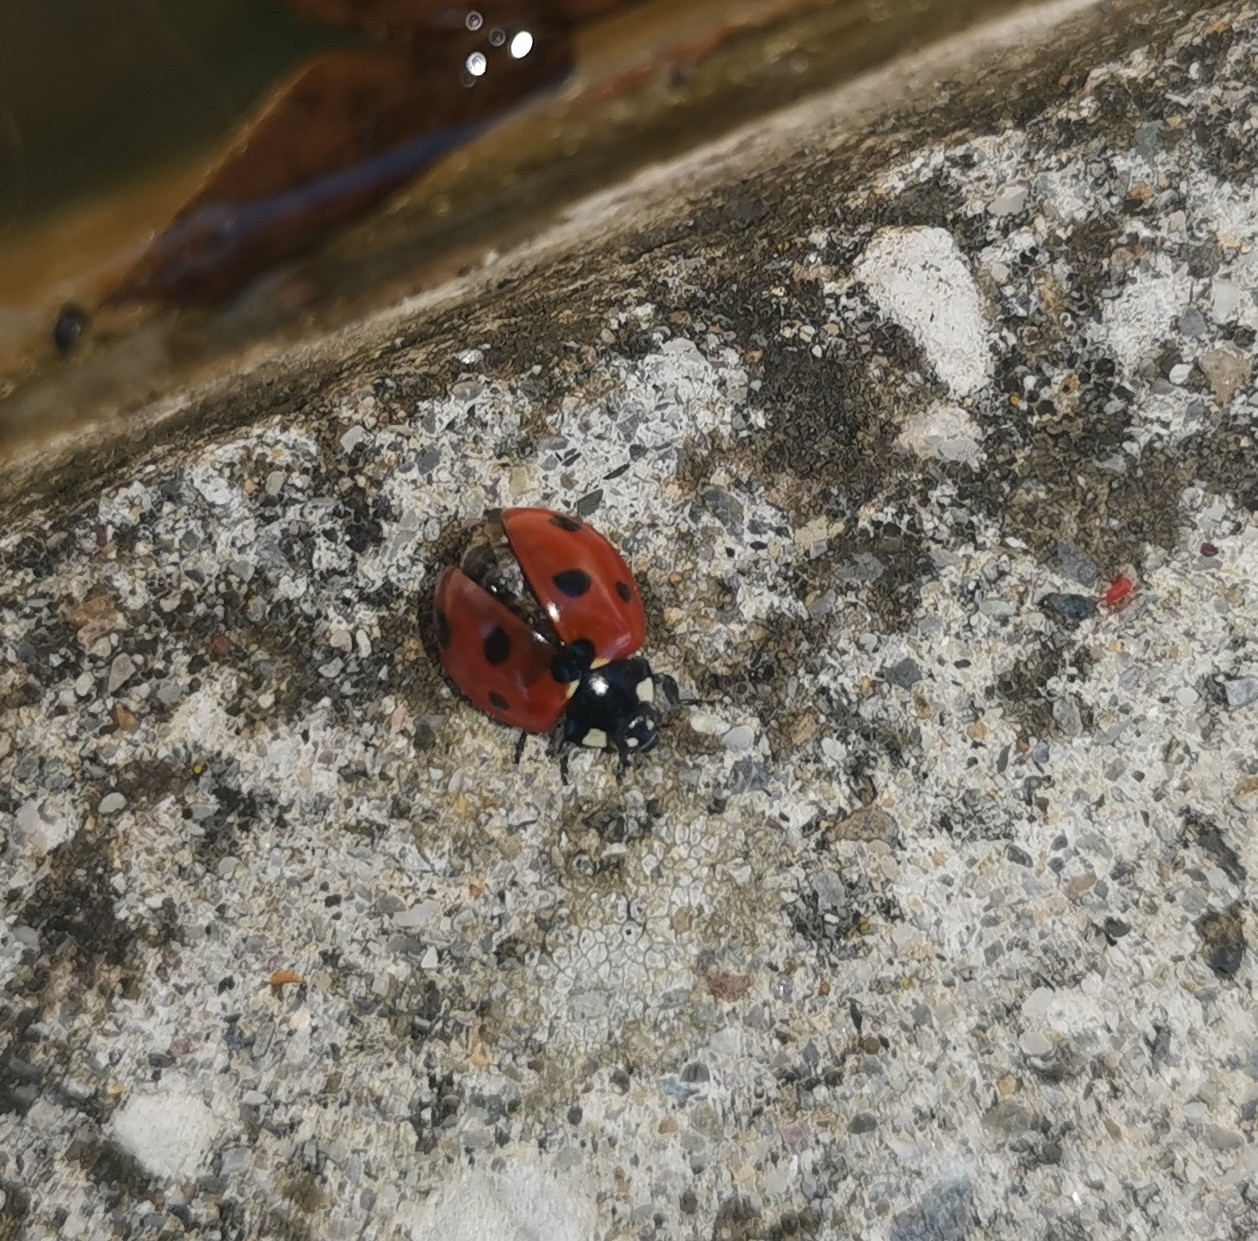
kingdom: Animalia
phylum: Arthropoda
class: Insecta
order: Coleoptera
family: Coccinellidae
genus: Coccinella
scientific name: Coccinella septempunctata
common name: Sevenspotted lady beetle
